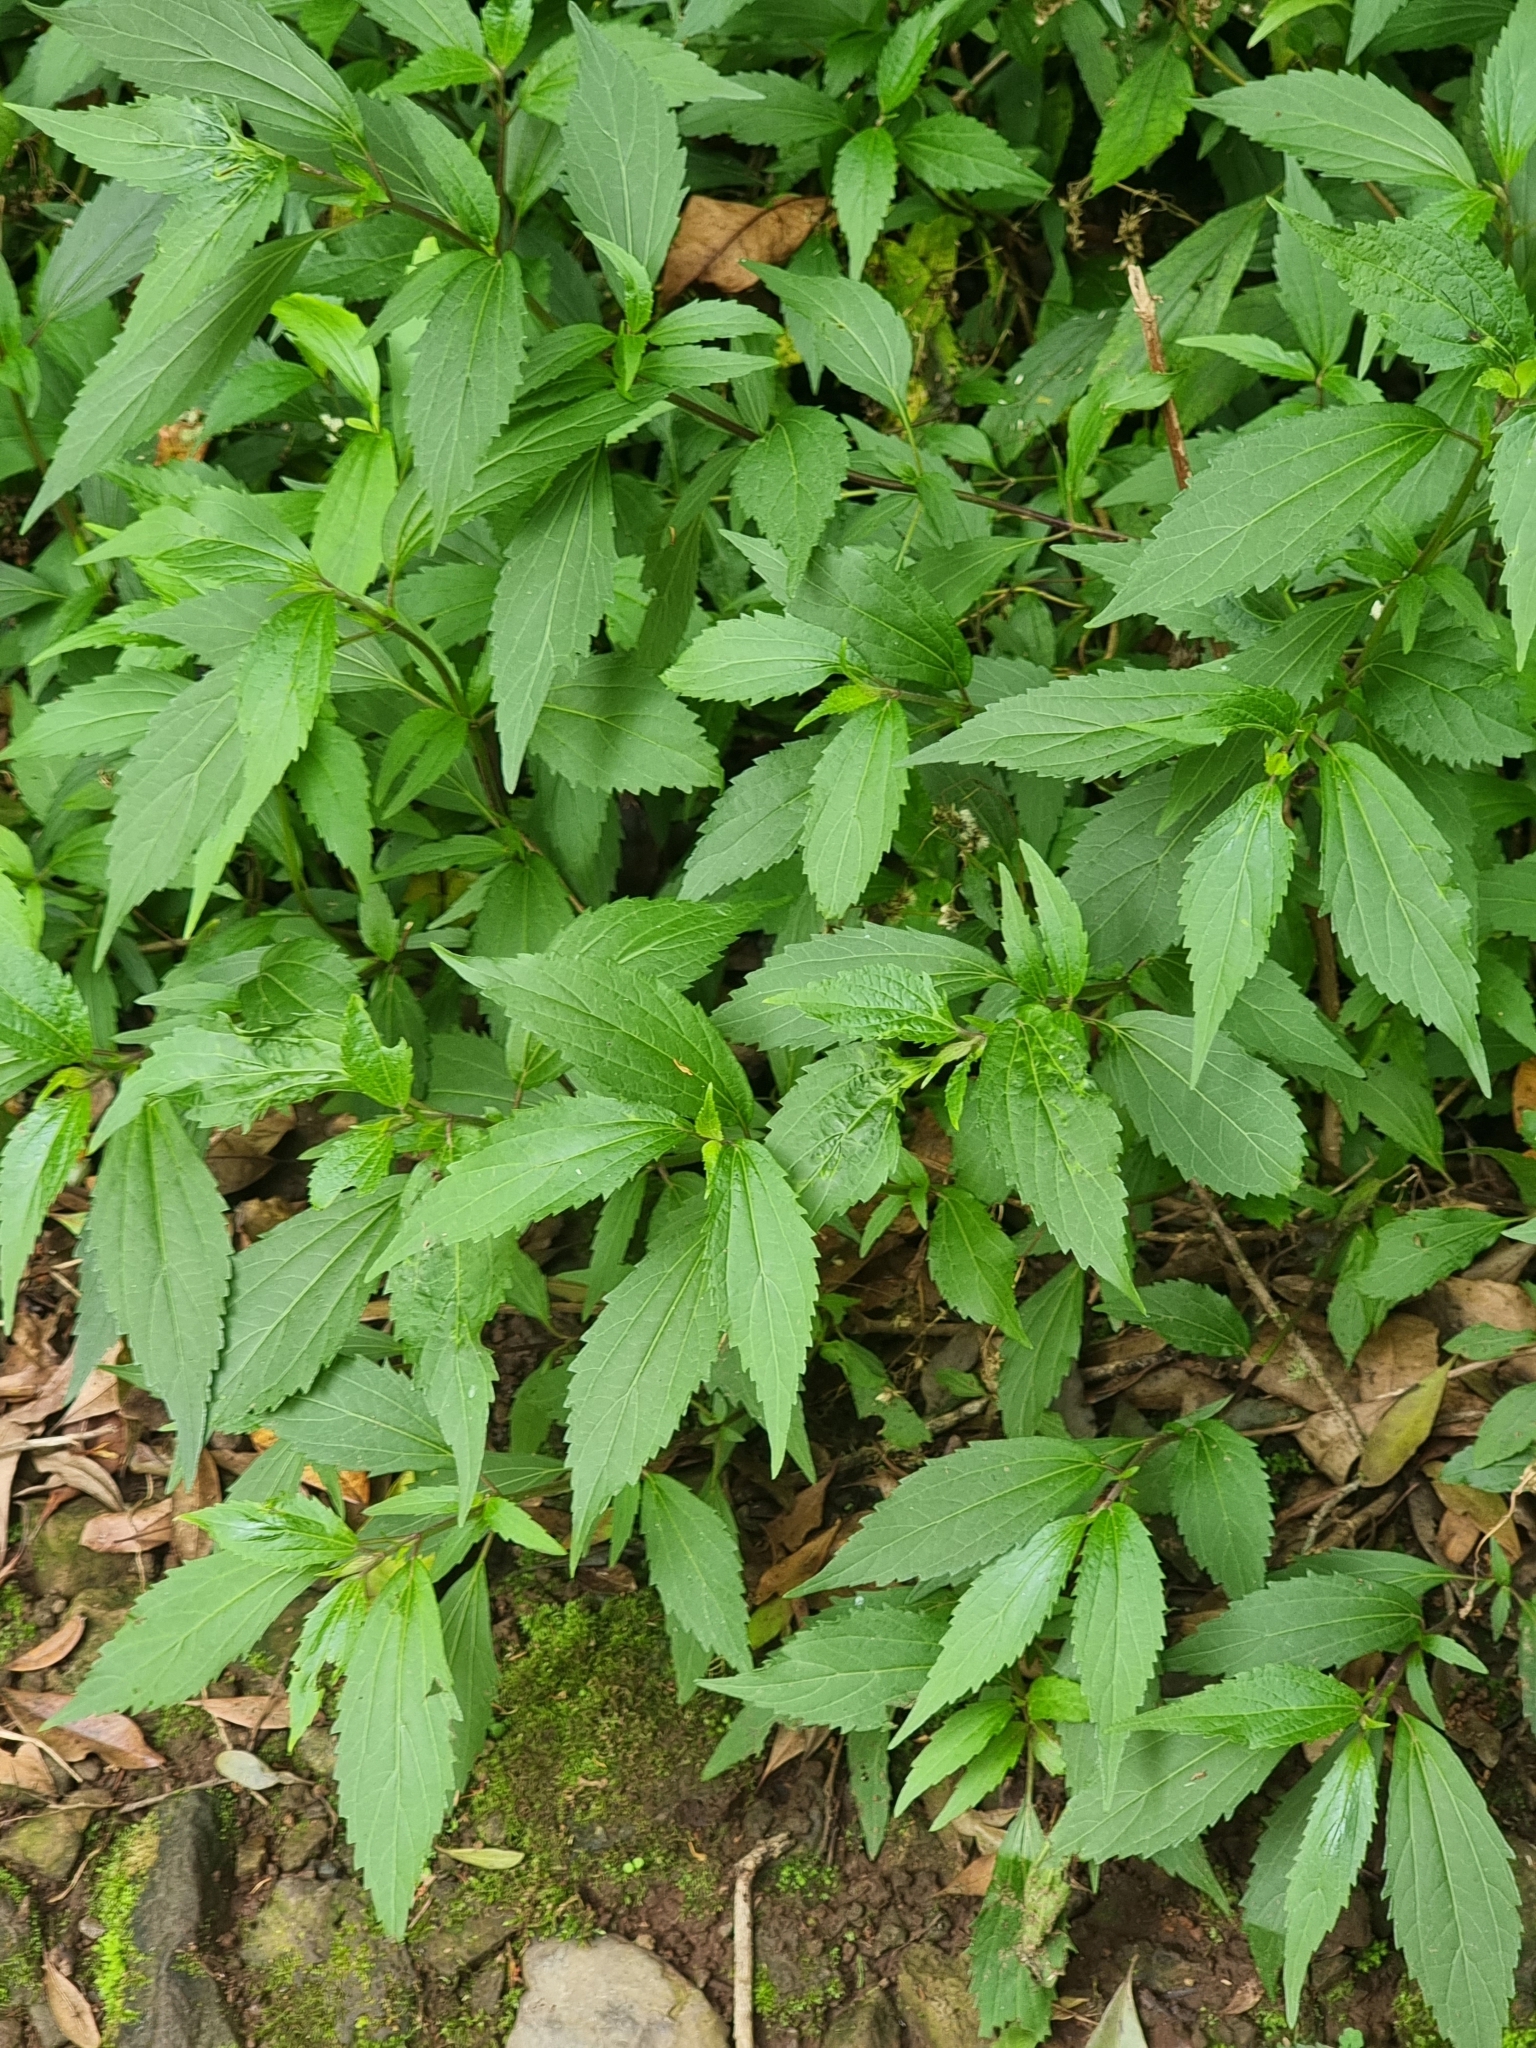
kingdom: Plantae
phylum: Tracheophyta
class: Magnoliopsida
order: Asterales
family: Asteraceae
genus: Ageratina
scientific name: Ageratina riparia
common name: Creeping croftonweed
